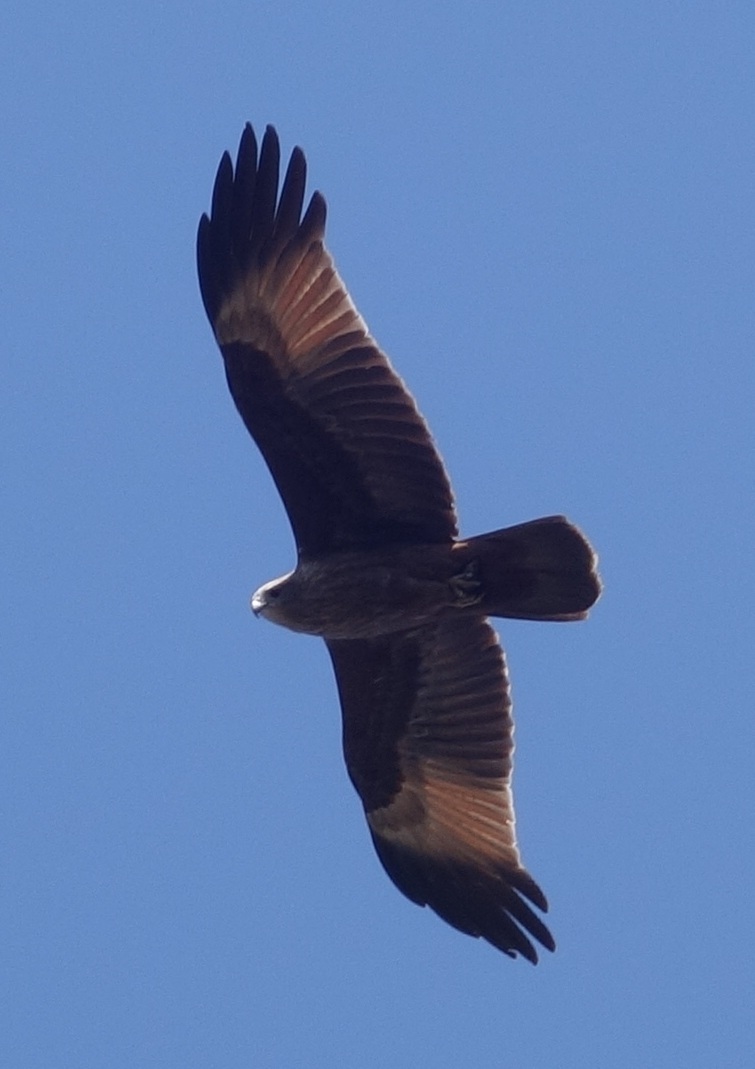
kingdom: Animalia
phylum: Chordata
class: Aves
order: Accipitriformes
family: Accipitridae
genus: Haliastur
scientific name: Haliastur indus
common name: Brahminy kite
